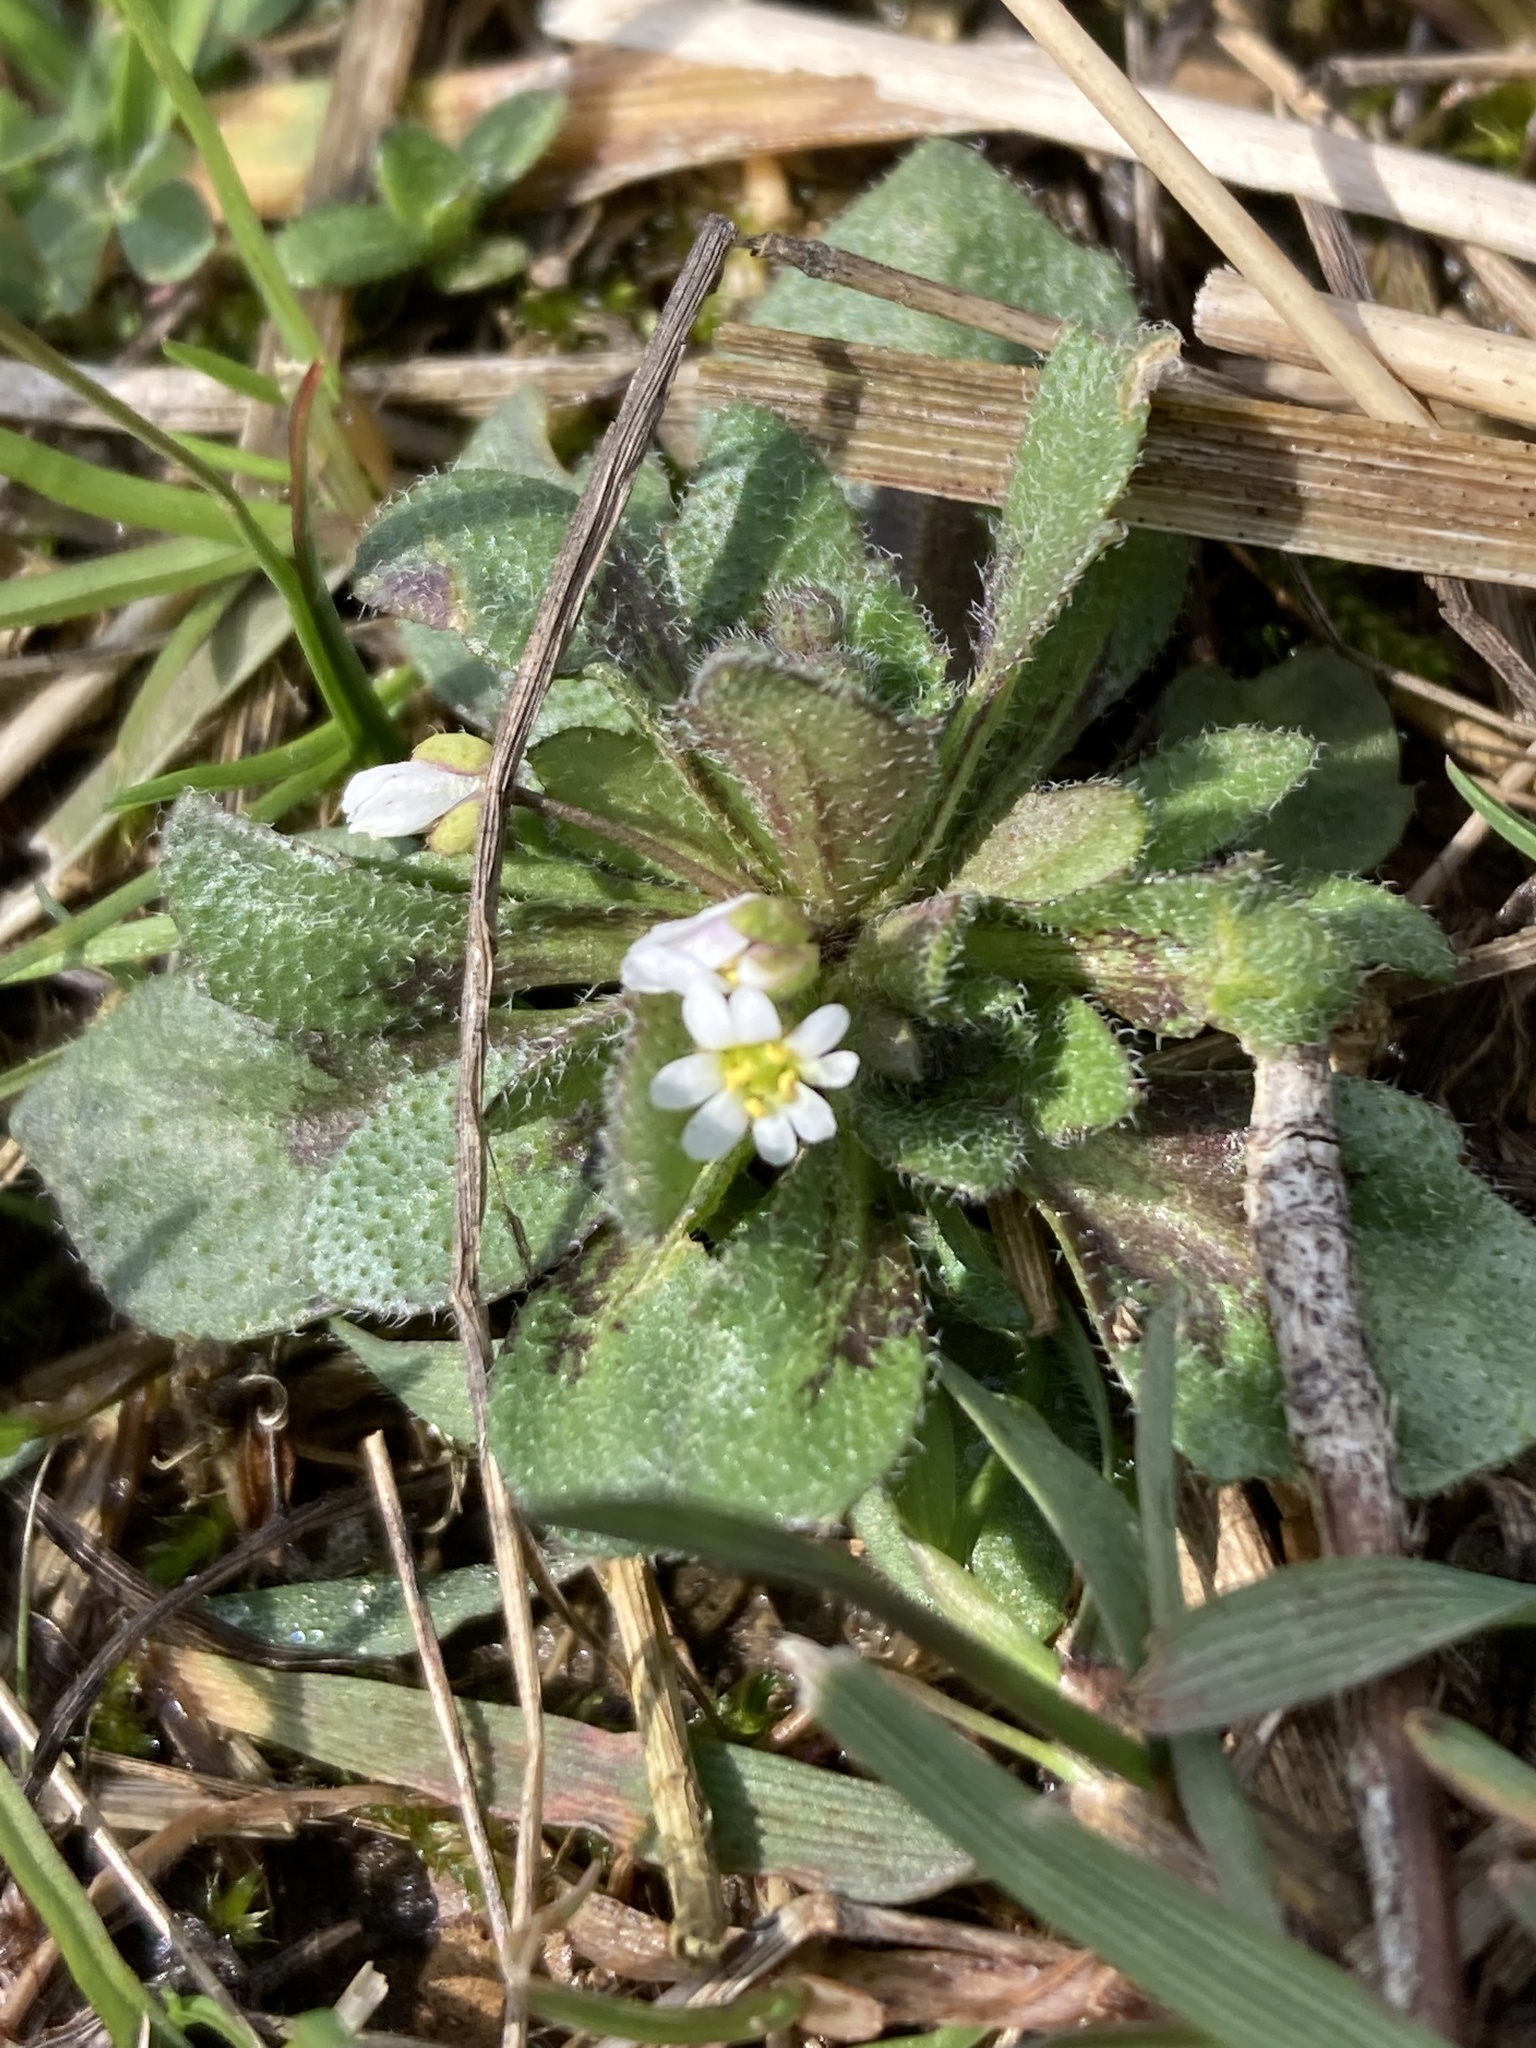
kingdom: Plantae
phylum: Tracheophyta
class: Magnoliopsida
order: Brassicales
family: Brassicaceae
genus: Draba
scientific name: Draba verna
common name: Spring draba
